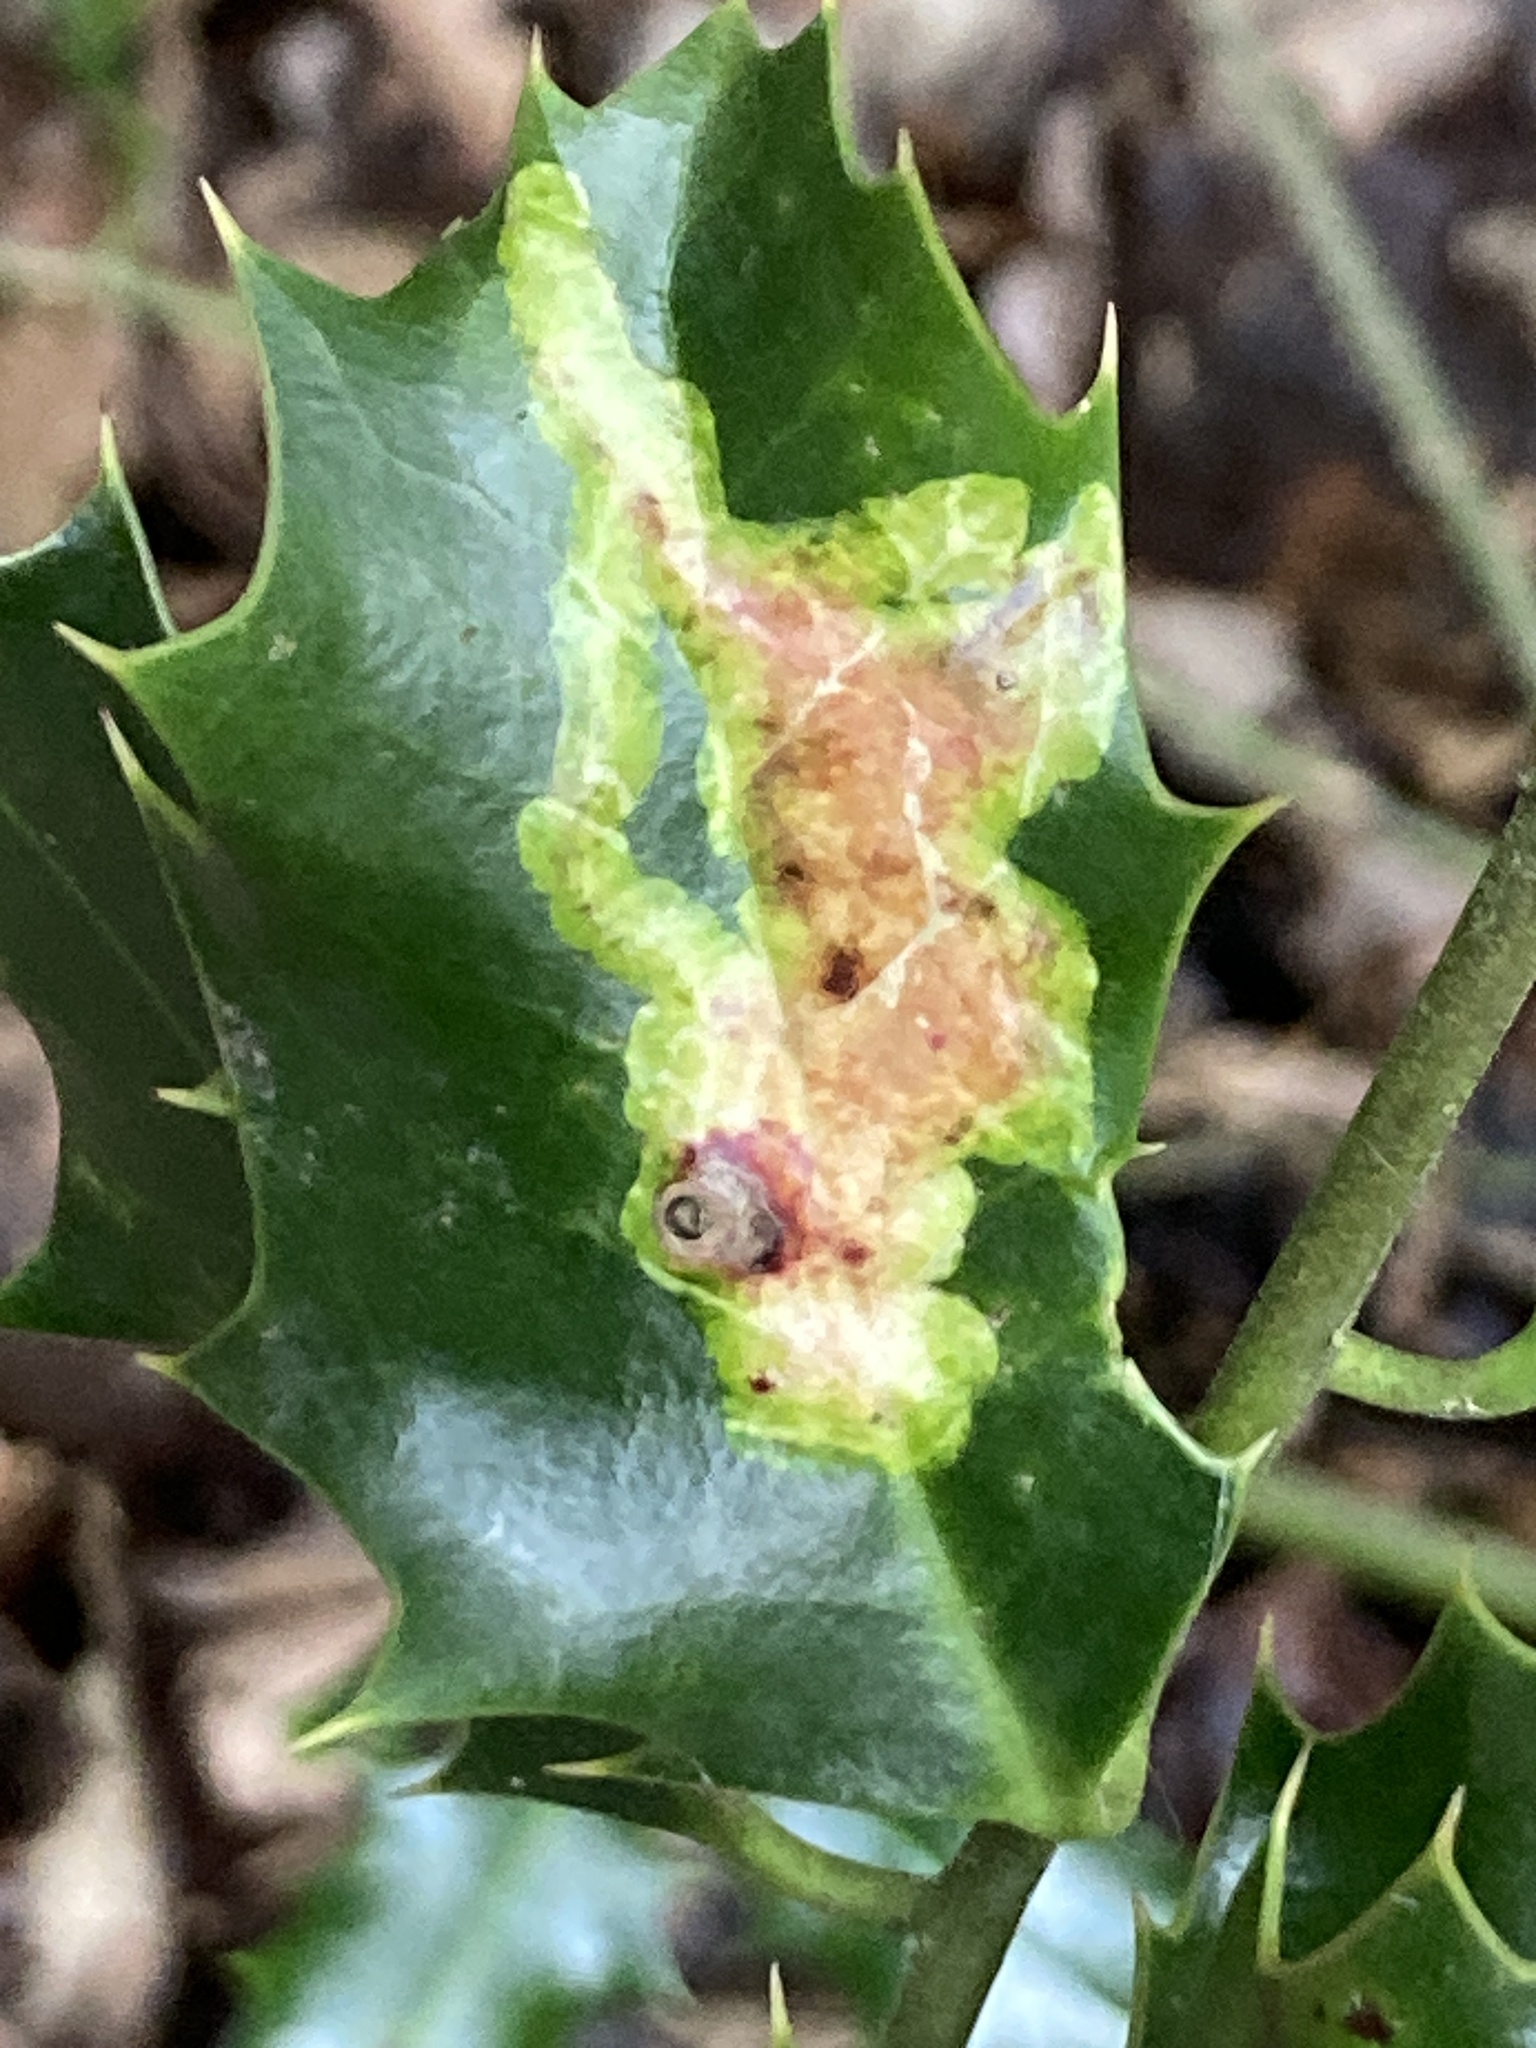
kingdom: Animalia
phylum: Arthropoda
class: Insecta
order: Diptera
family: Agromyzidae
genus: Phytomyza
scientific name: Phytomyza ilicis
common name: Holly leafminer
